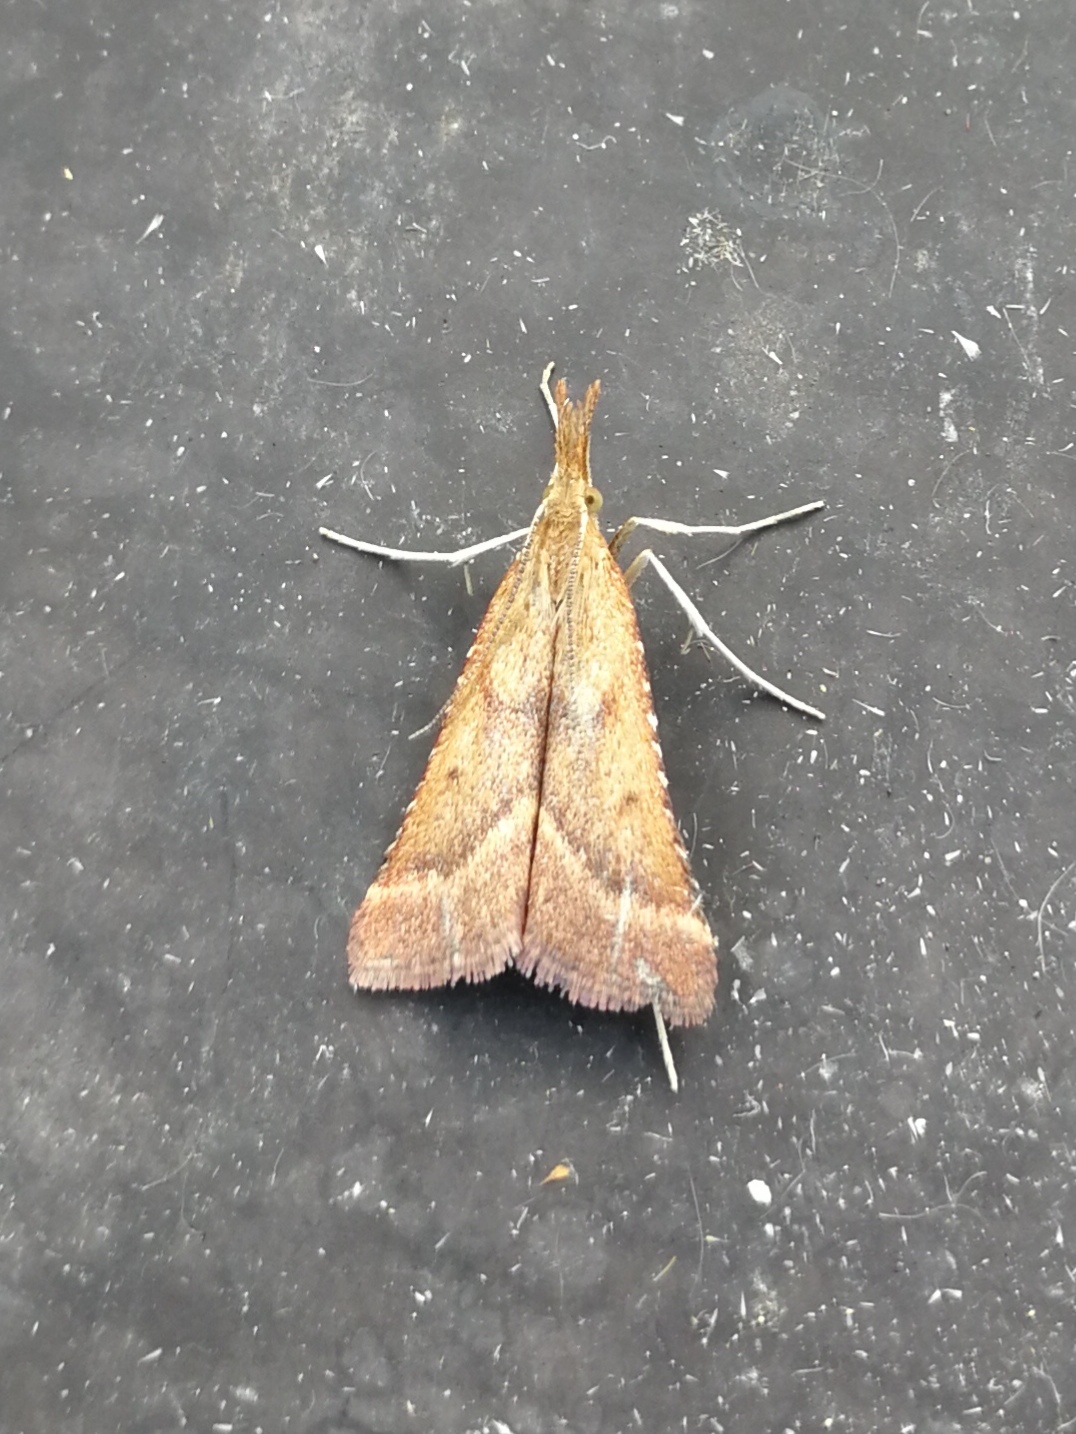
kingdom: Animalia
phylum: Arthropoda
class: Insecta
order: Lepidoptera
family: Pyralidae
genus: Synaphe
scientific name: Synaphe punctalis
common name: Long-legged tabby
